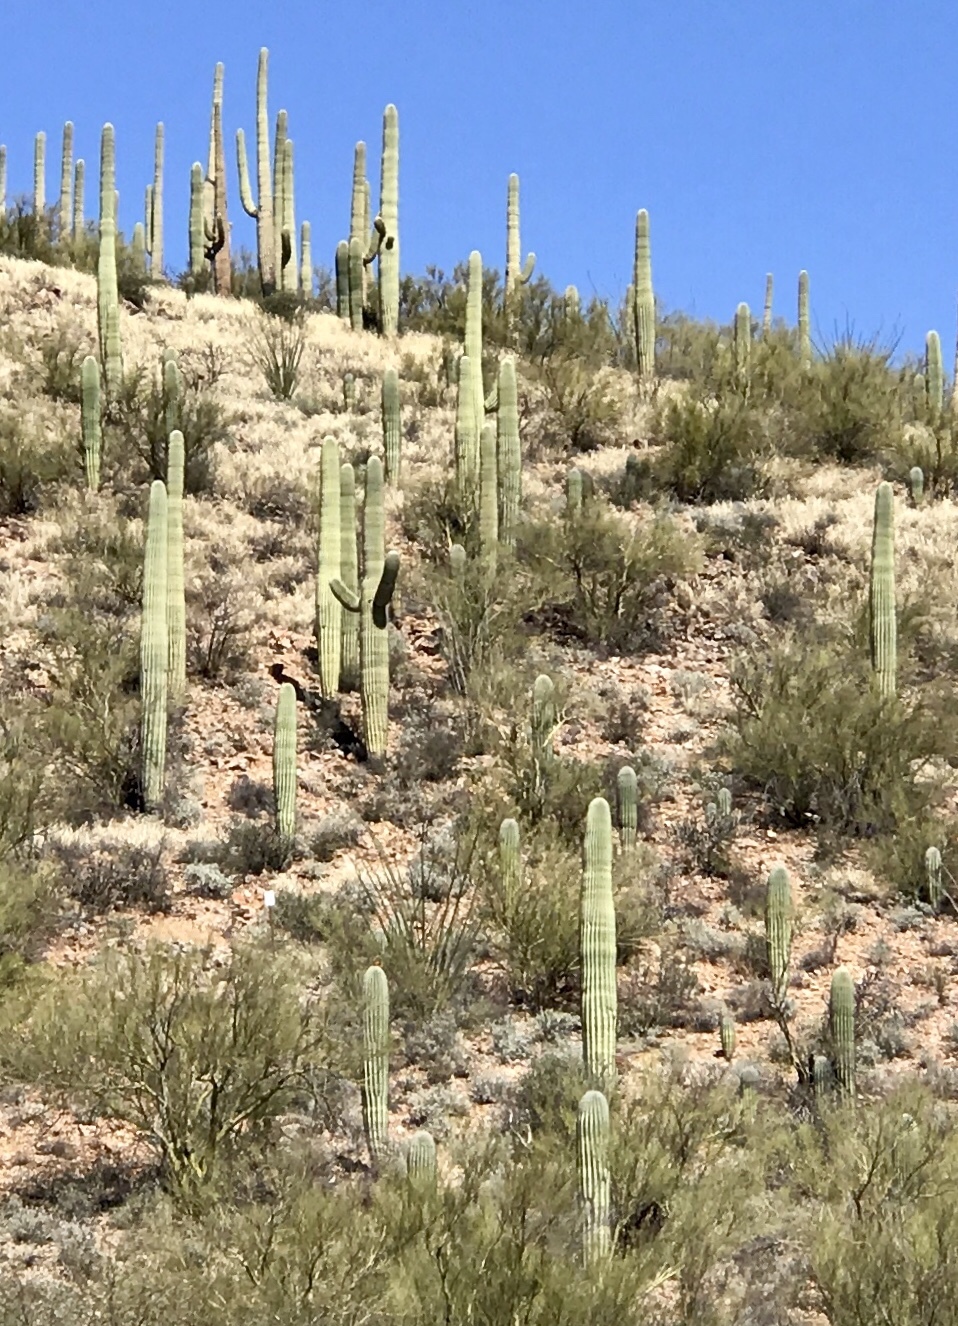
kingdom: Plantae
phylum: Tracheophyta
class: Magnoliopsida
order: Caryophyllales
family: Cactaceae
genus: Carnegiea
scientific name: Carnegiea gigantea
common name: Saguaro
